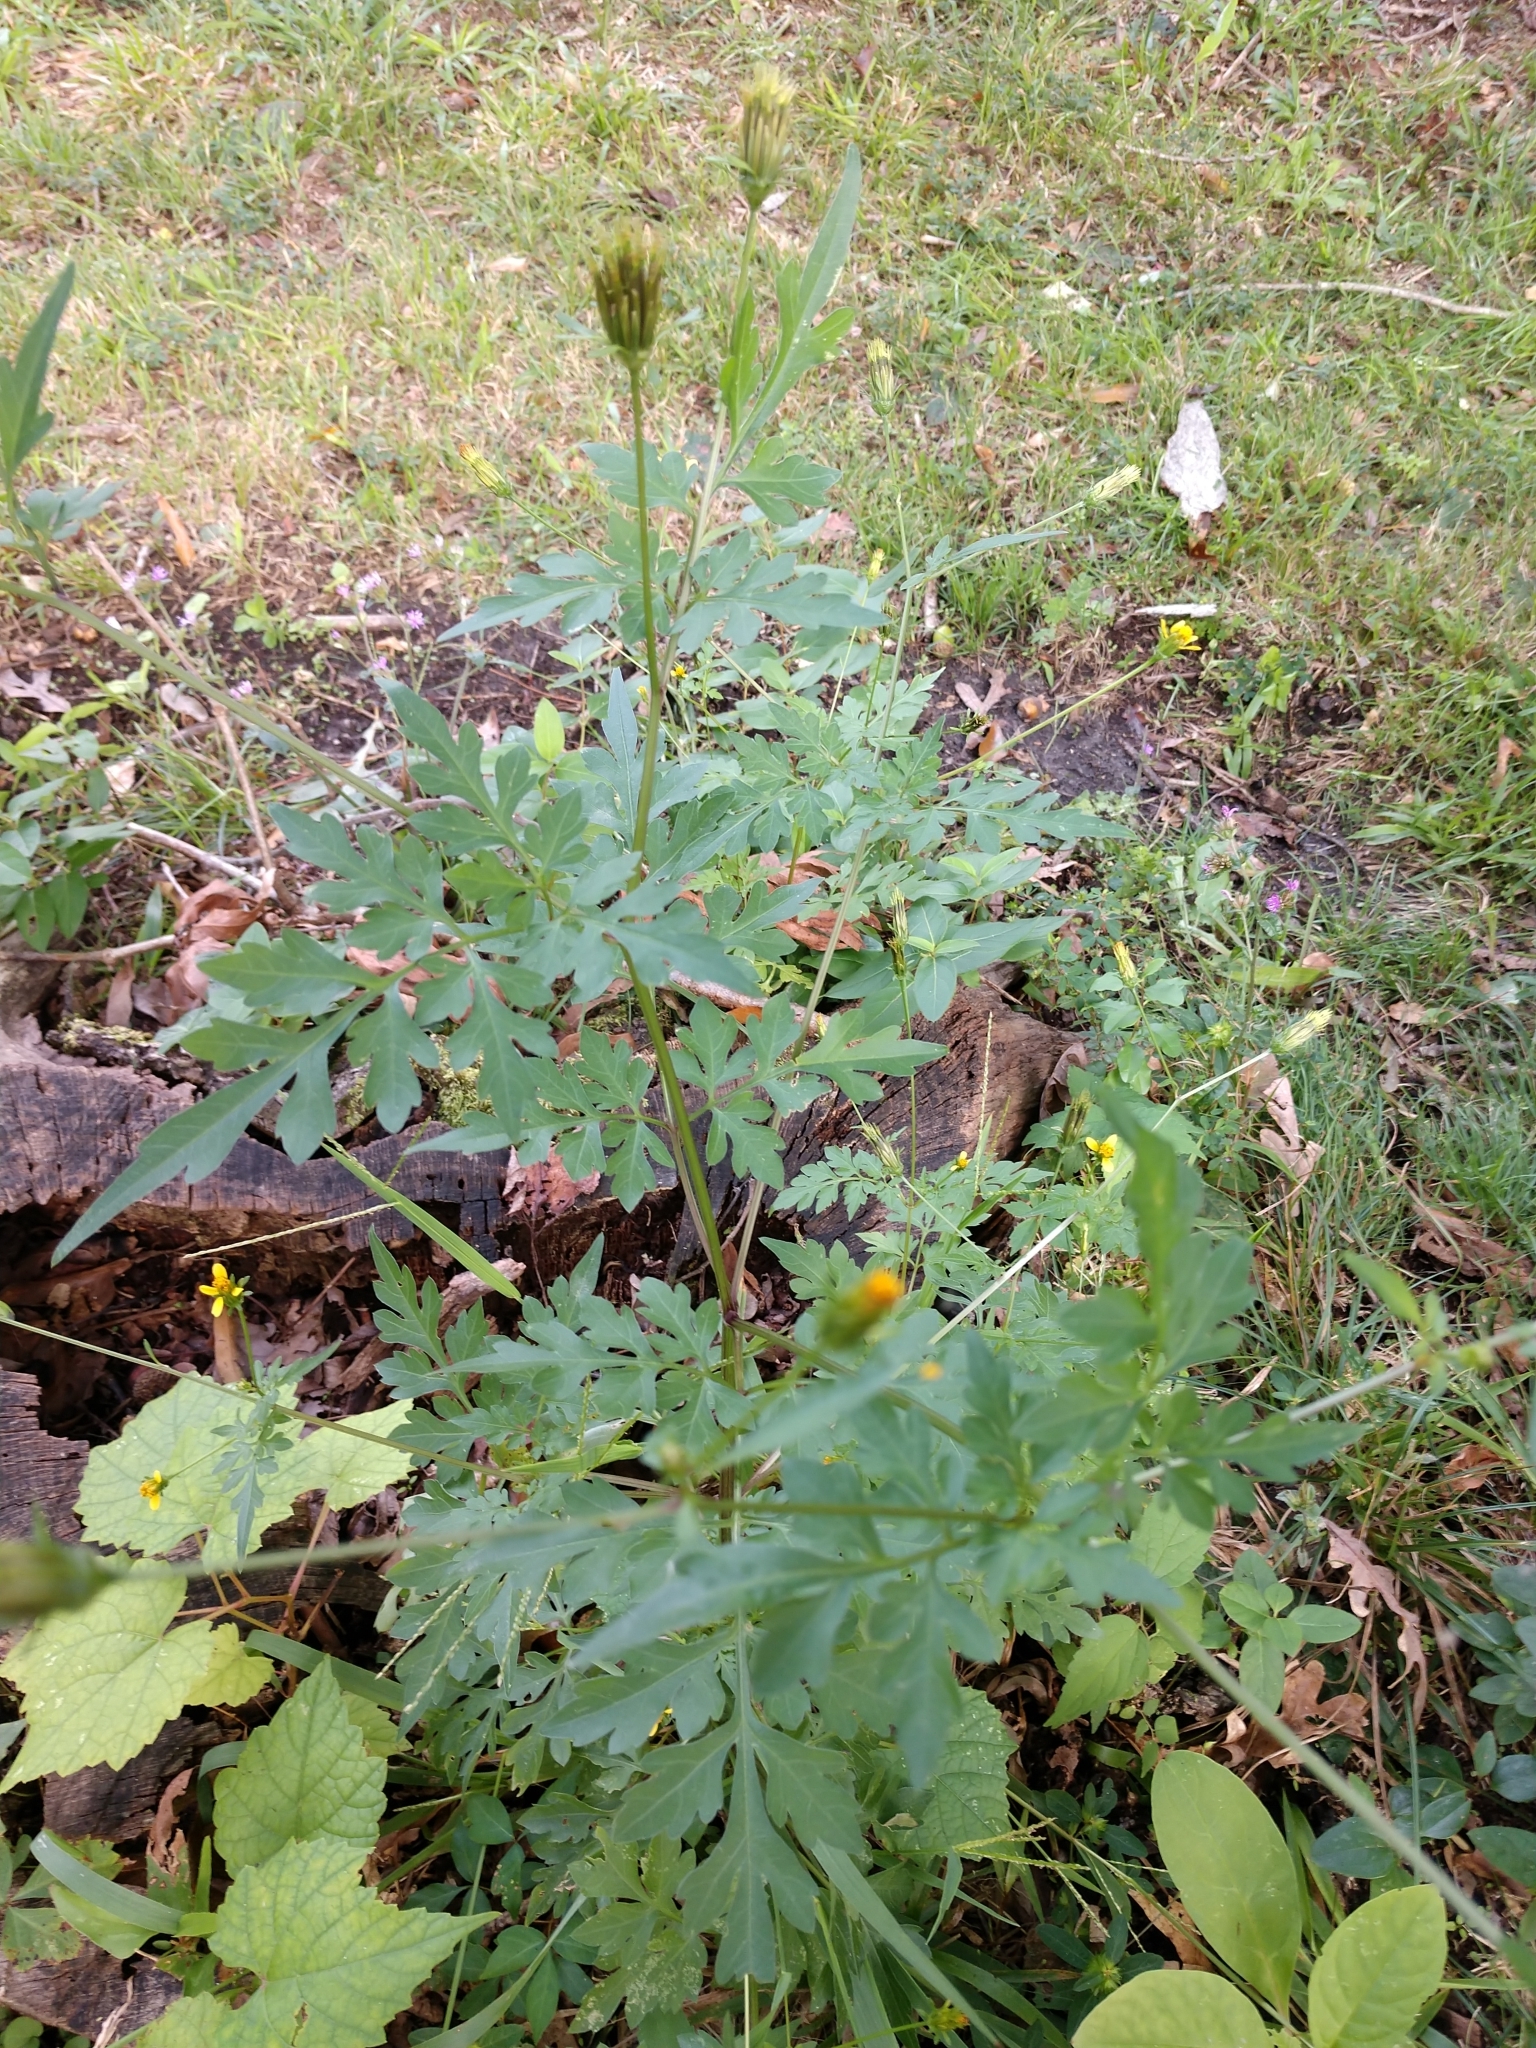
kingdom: Plantae
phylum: Tracheophyta
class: Magnoliopsida
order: Asterales
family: Asteraceae
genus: Bidens
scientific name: Bidens bipinnata
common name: Spanish-needles
